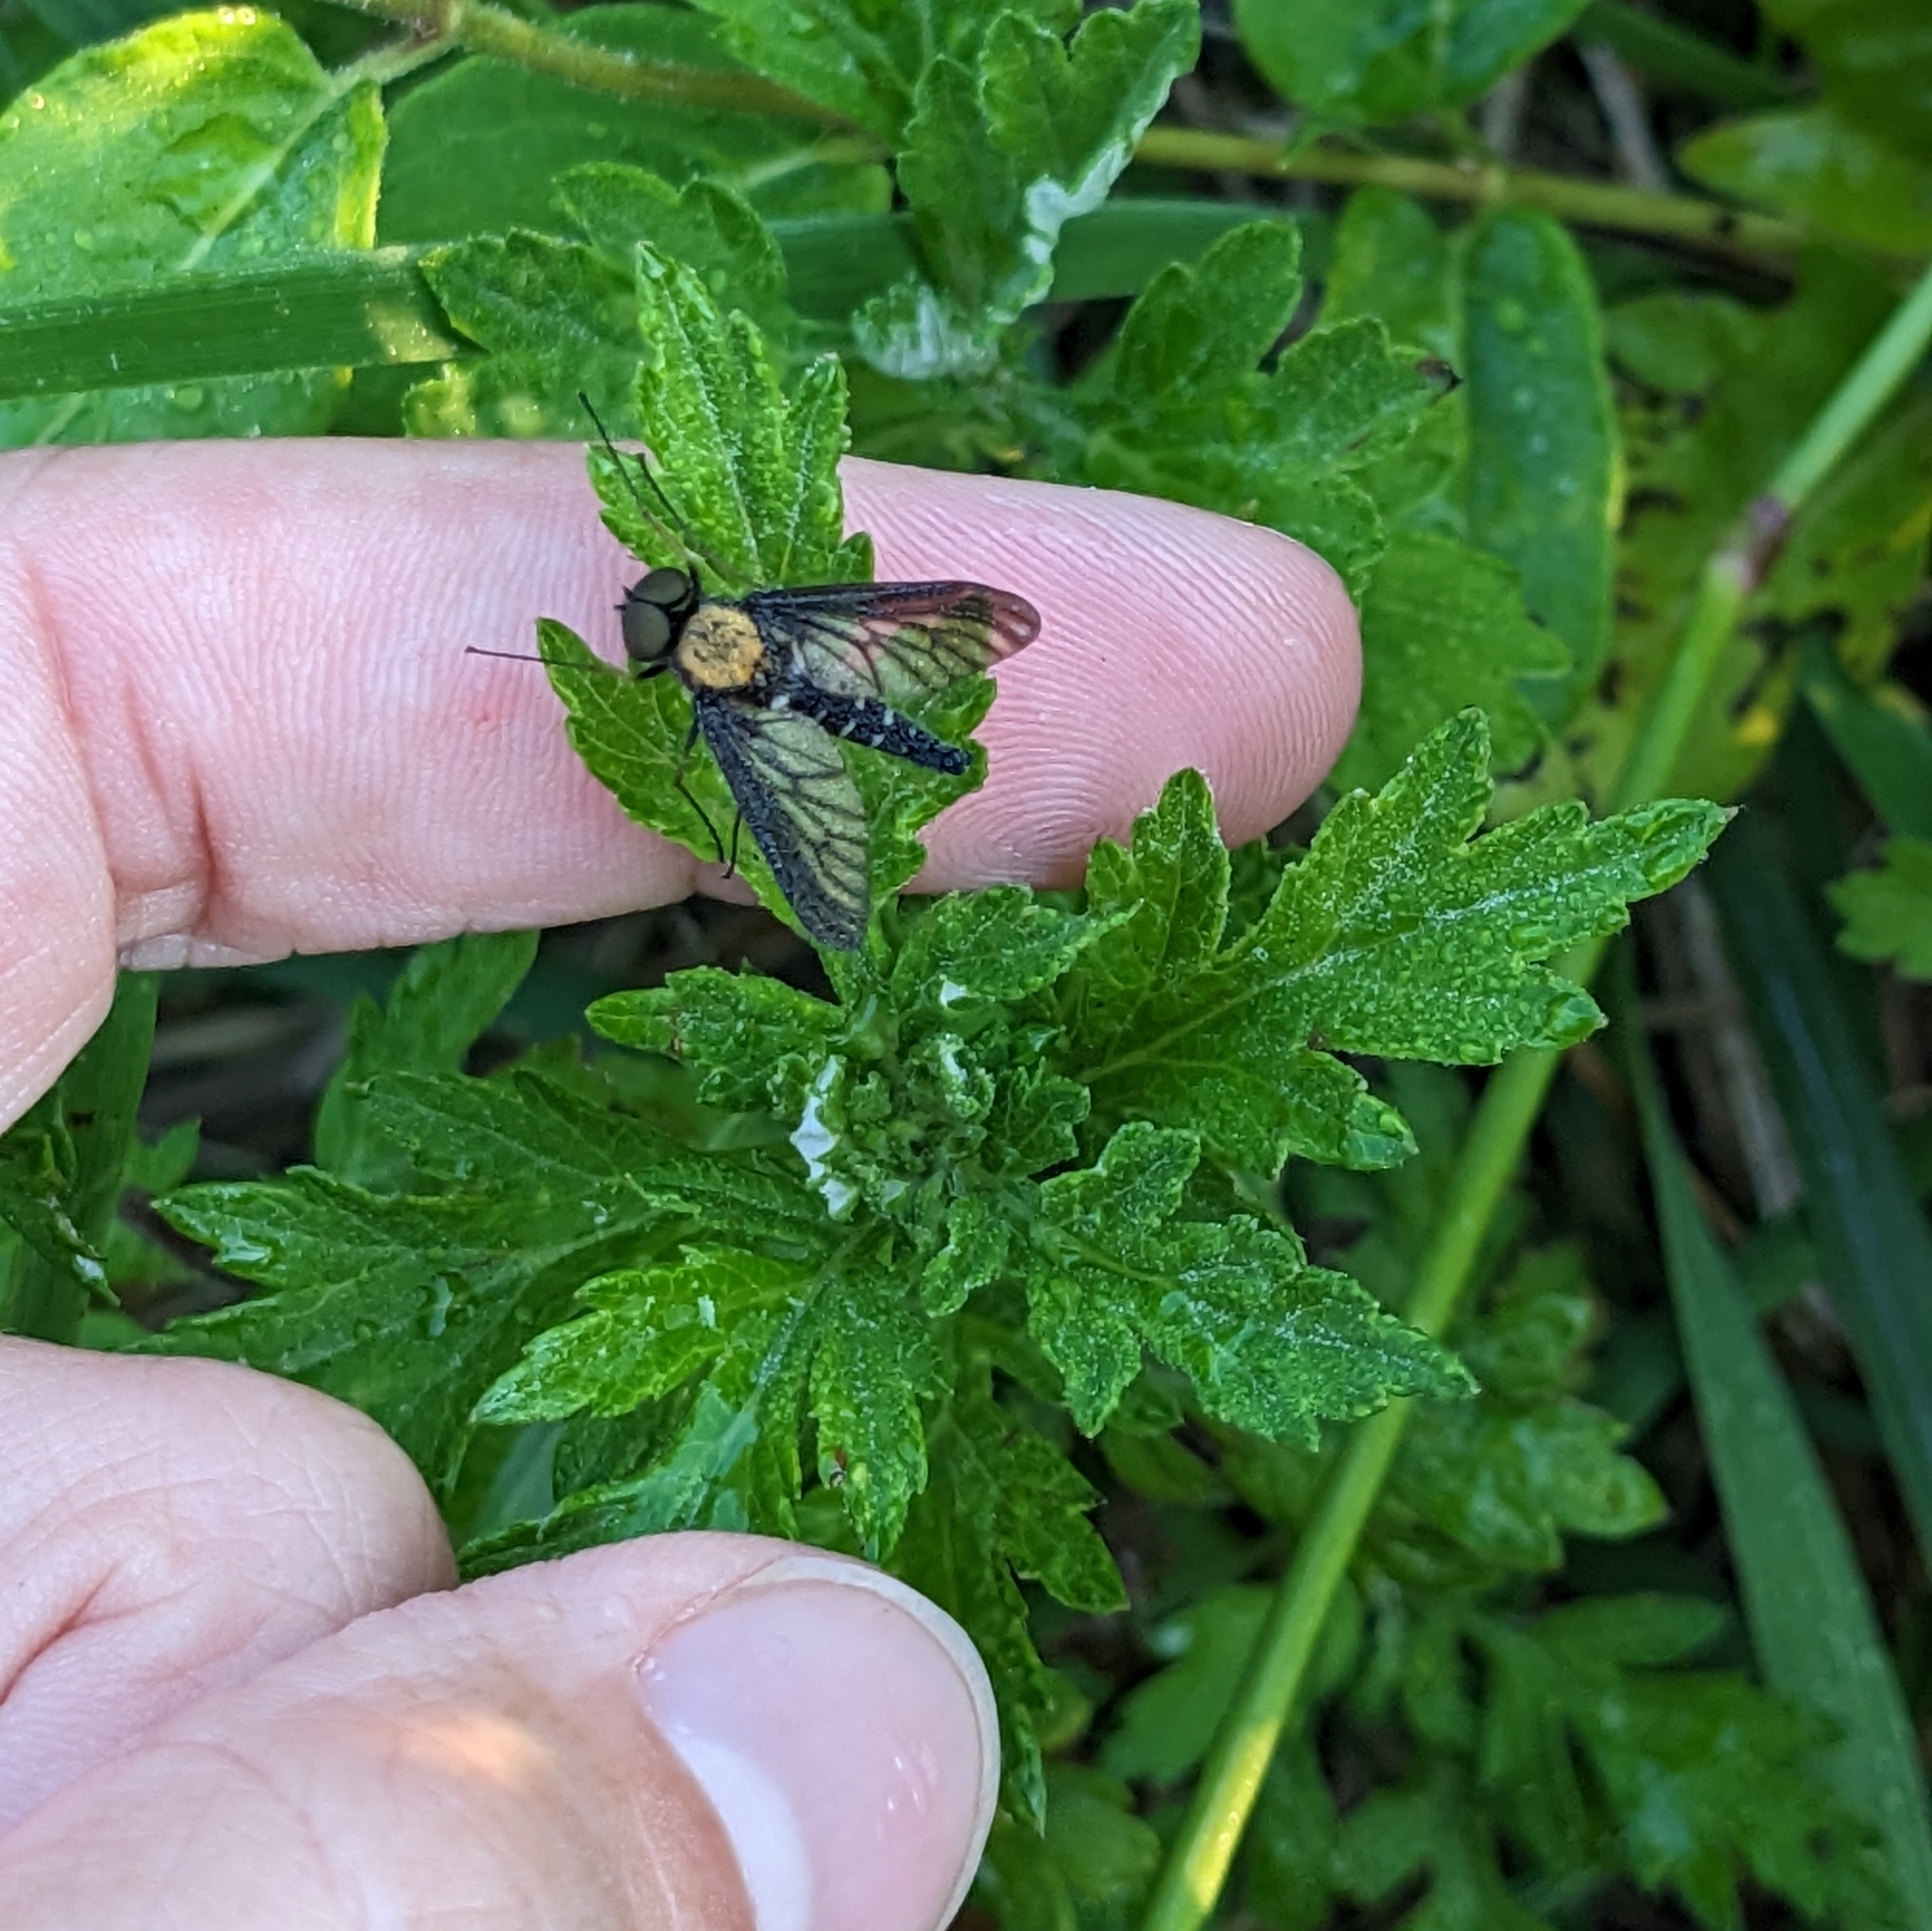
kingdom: Animalia
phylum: Arthropoda
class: Insecta
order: Diptera
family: Rhagionidae
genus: Chrysopilus
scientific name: Chrysopilus thoracicus
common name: Golden-backed snipe fly
